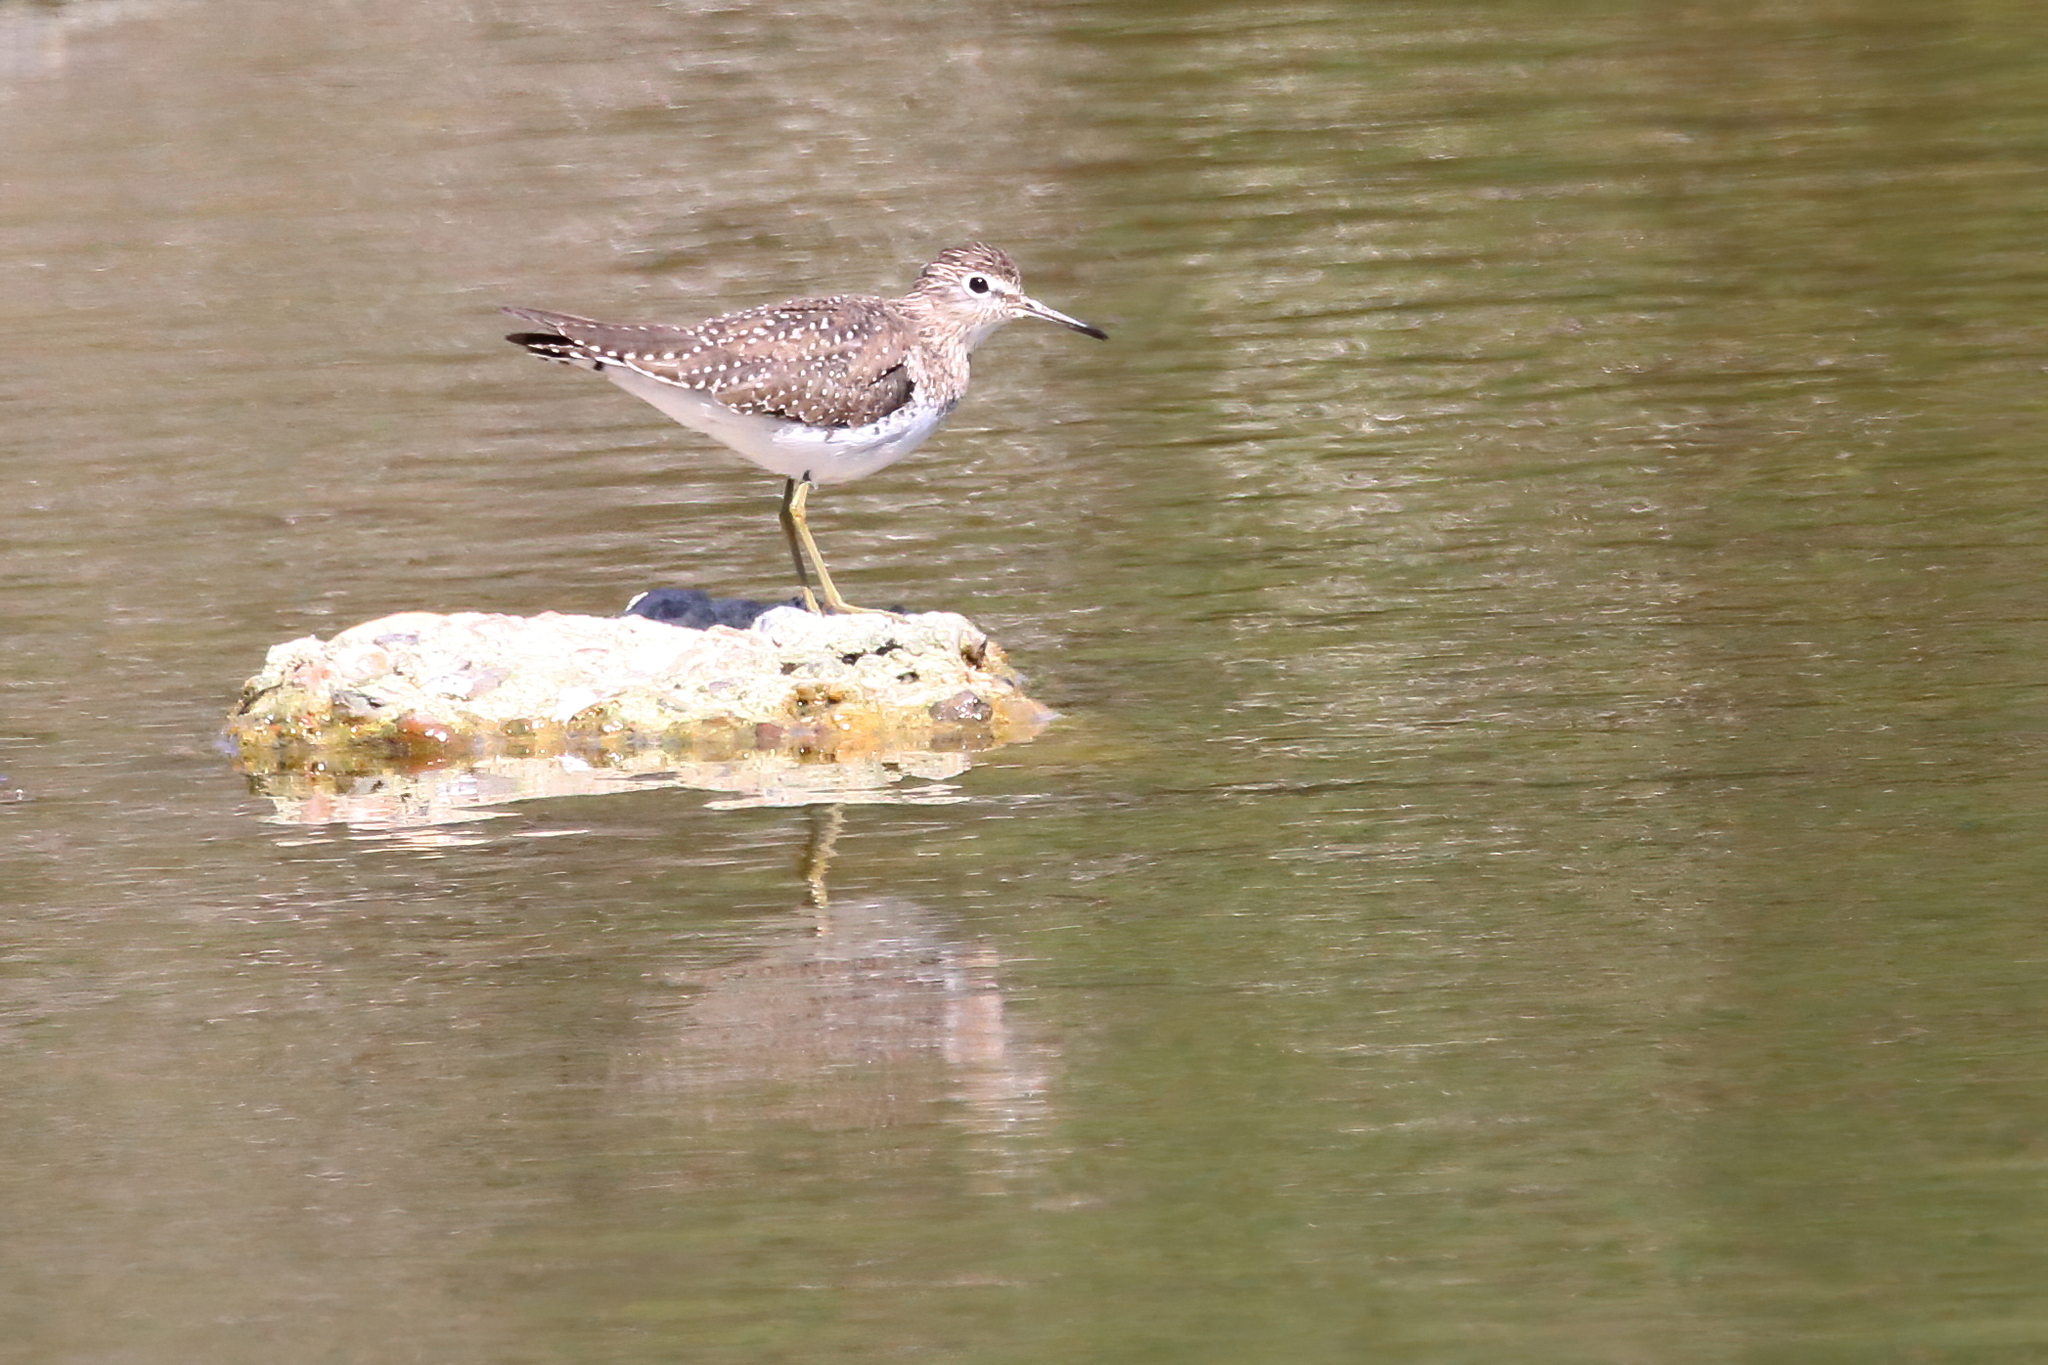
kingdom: Animalia
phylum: Chordata
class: Aves
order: Charadriiformes
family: Scolopacidae
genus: Tringa
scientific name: Tringa solitaria
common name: Solitary sandpiper
